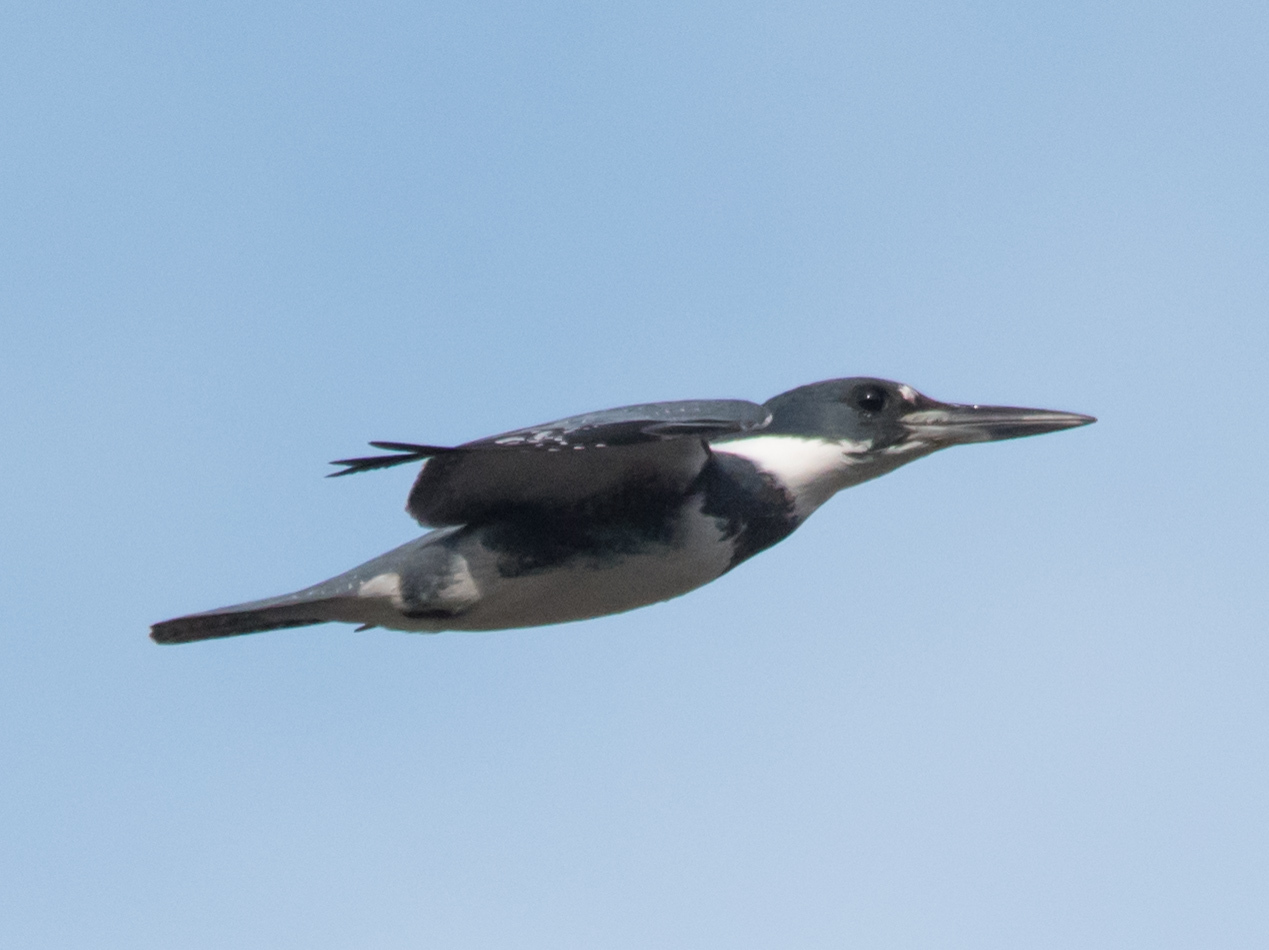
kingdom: Animalia
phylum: Chordata
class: Aves
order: Coraciiformes
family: Alcedinidae
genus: Megaceryle
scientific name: Megaceryle alcyon
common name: Belted kingfisher
